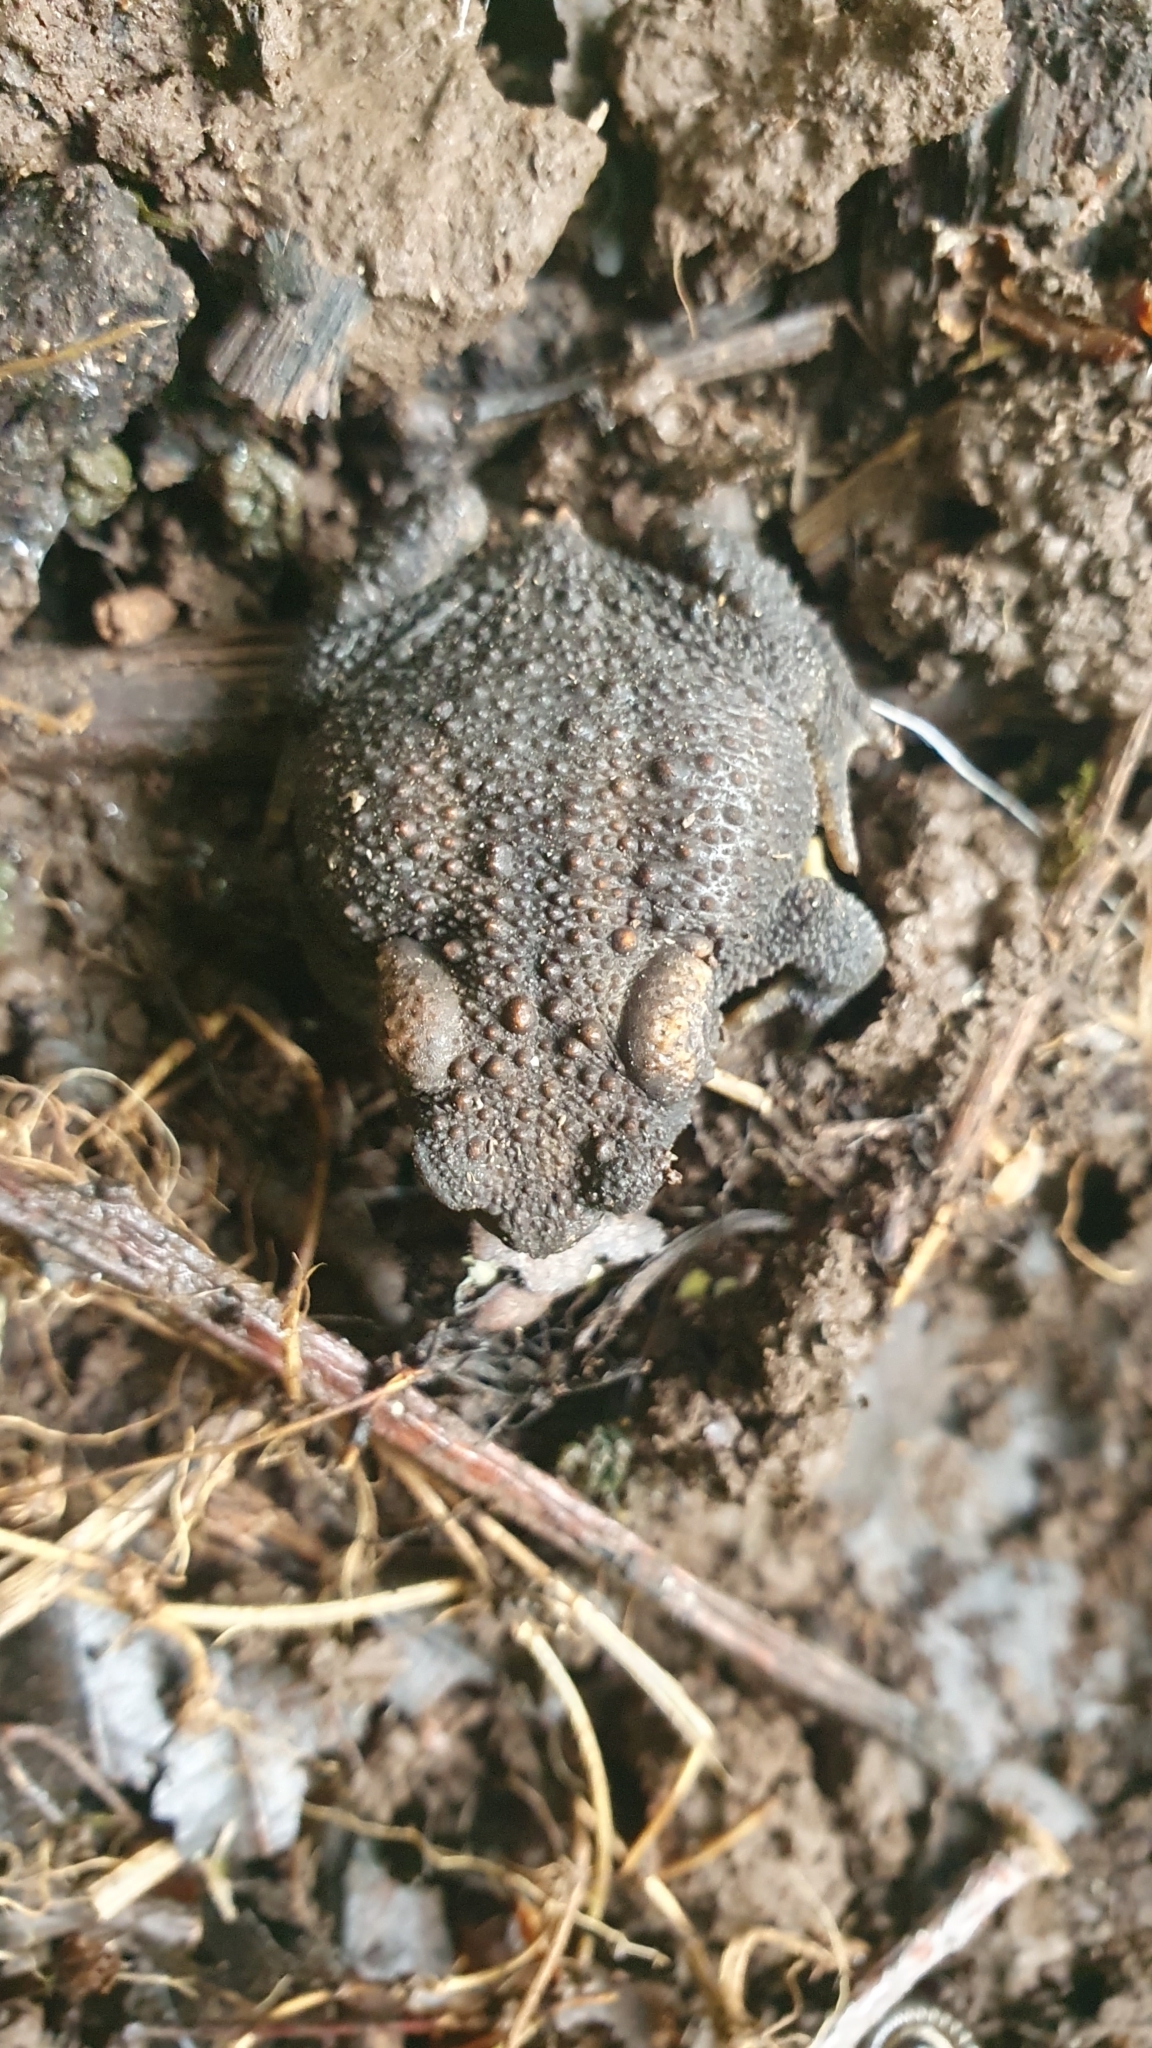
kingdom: Animalia
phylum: Chordata
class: Amphibia
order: Anura
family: Bufonidae
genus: Bufo
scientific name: Bufo spinosus
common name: Western common toad
